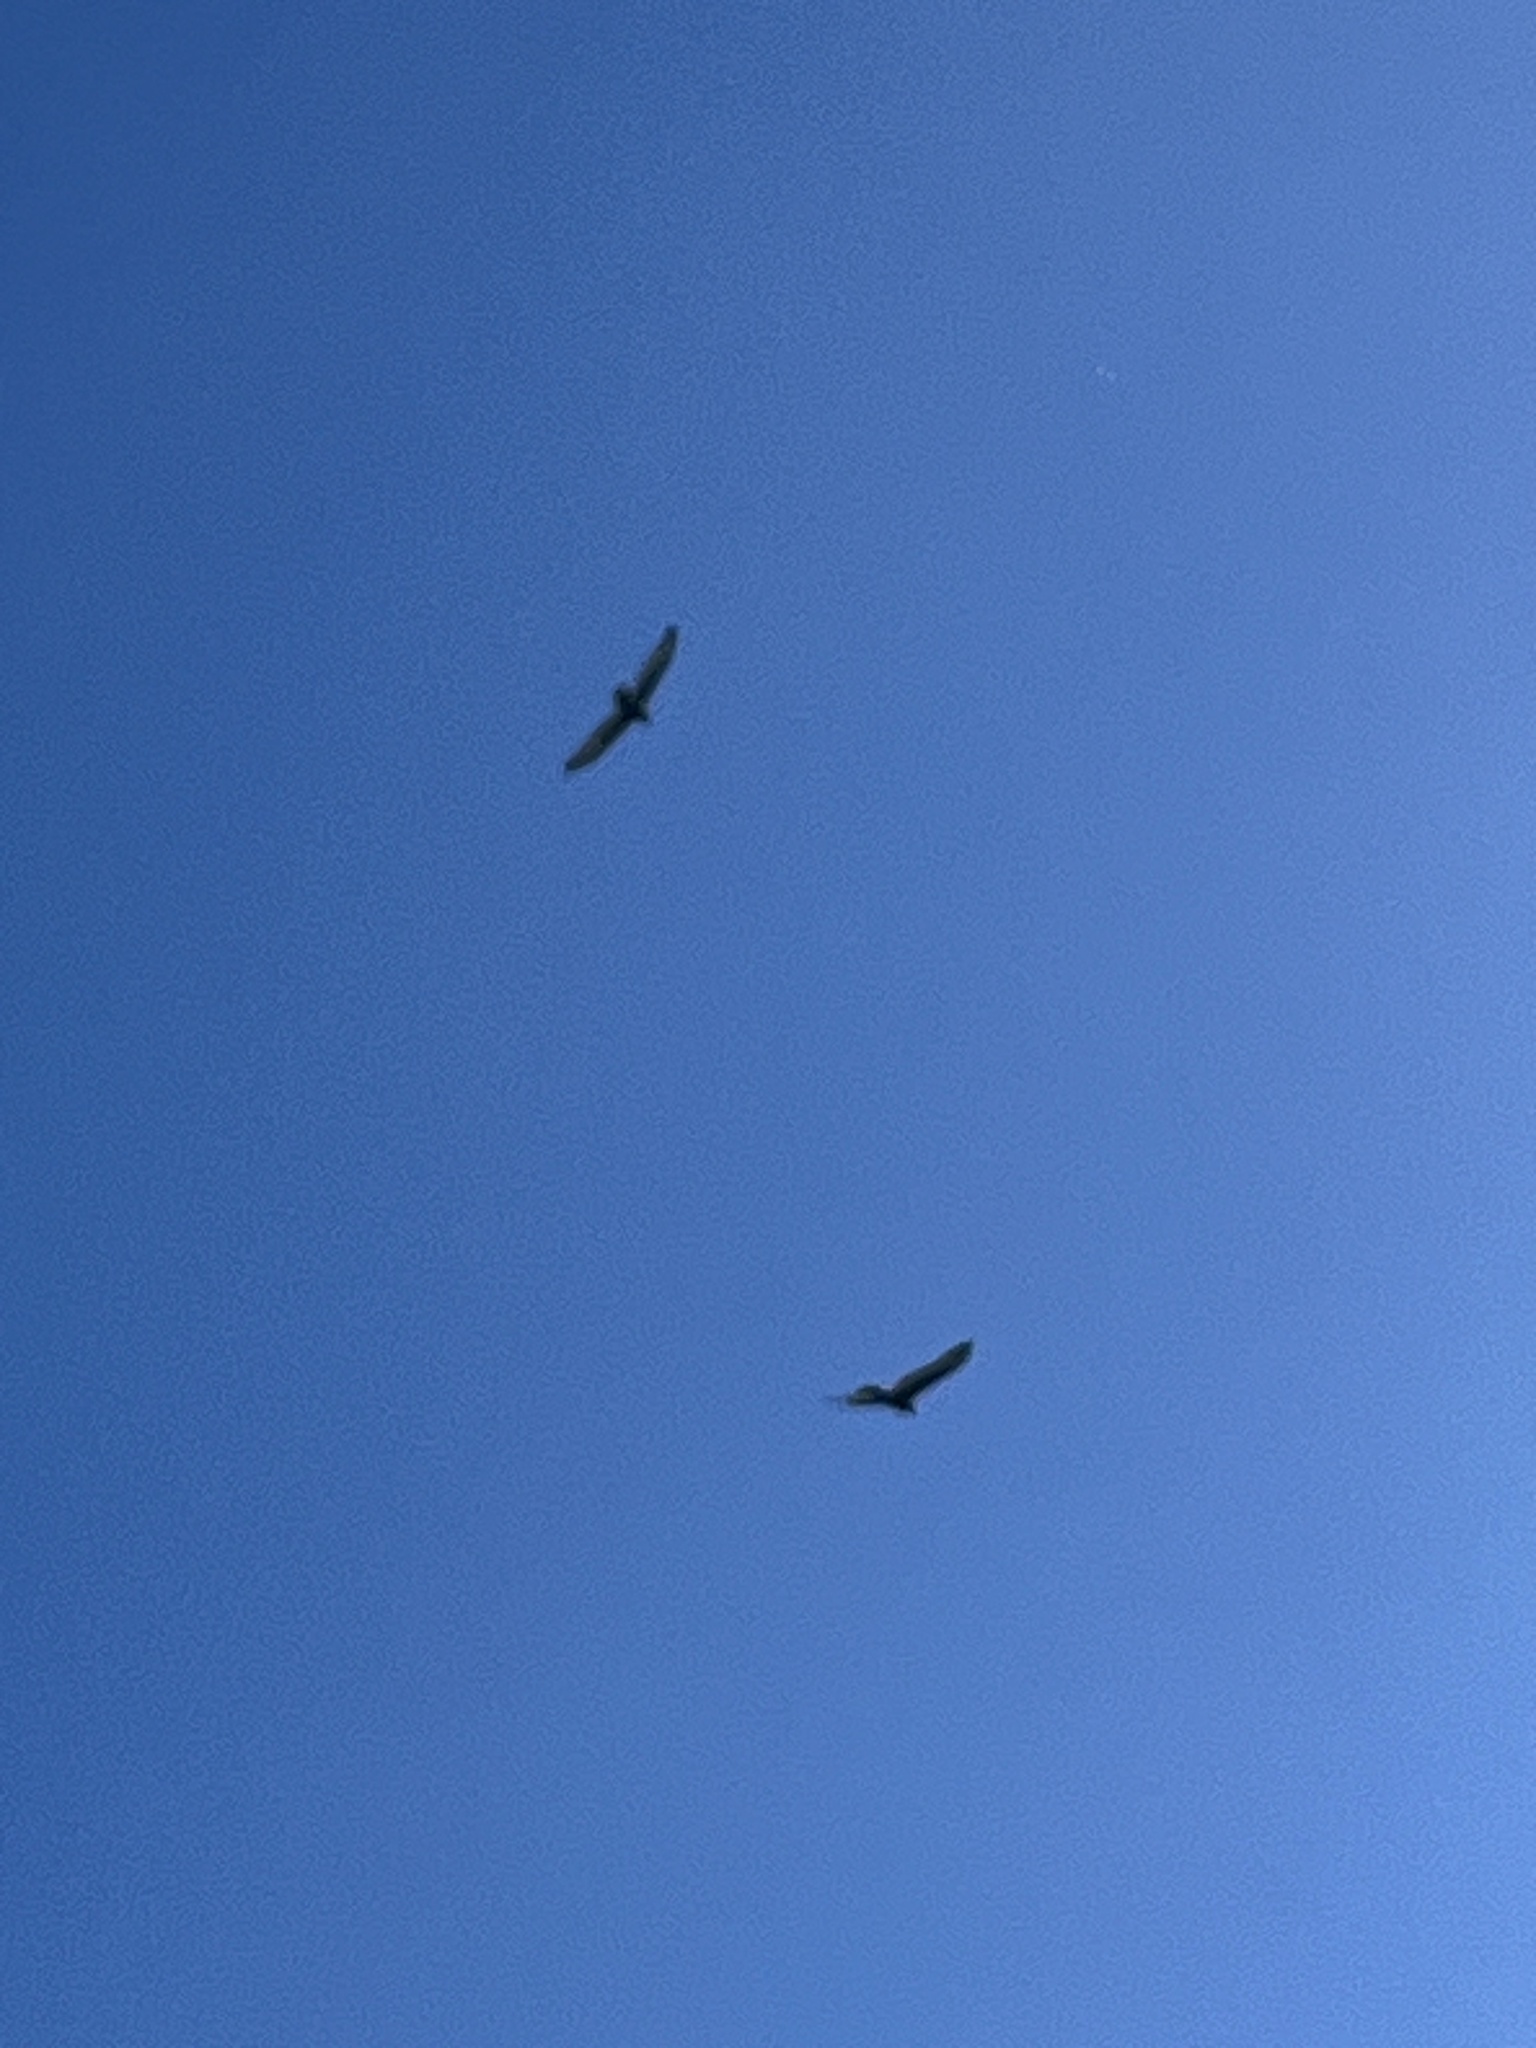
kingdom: Animalia
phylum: Chordata
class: Aves
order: Accipitriformes
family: Cathartidae
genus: Cathartes
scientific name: Cathartes aura
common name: Turkey vulture
